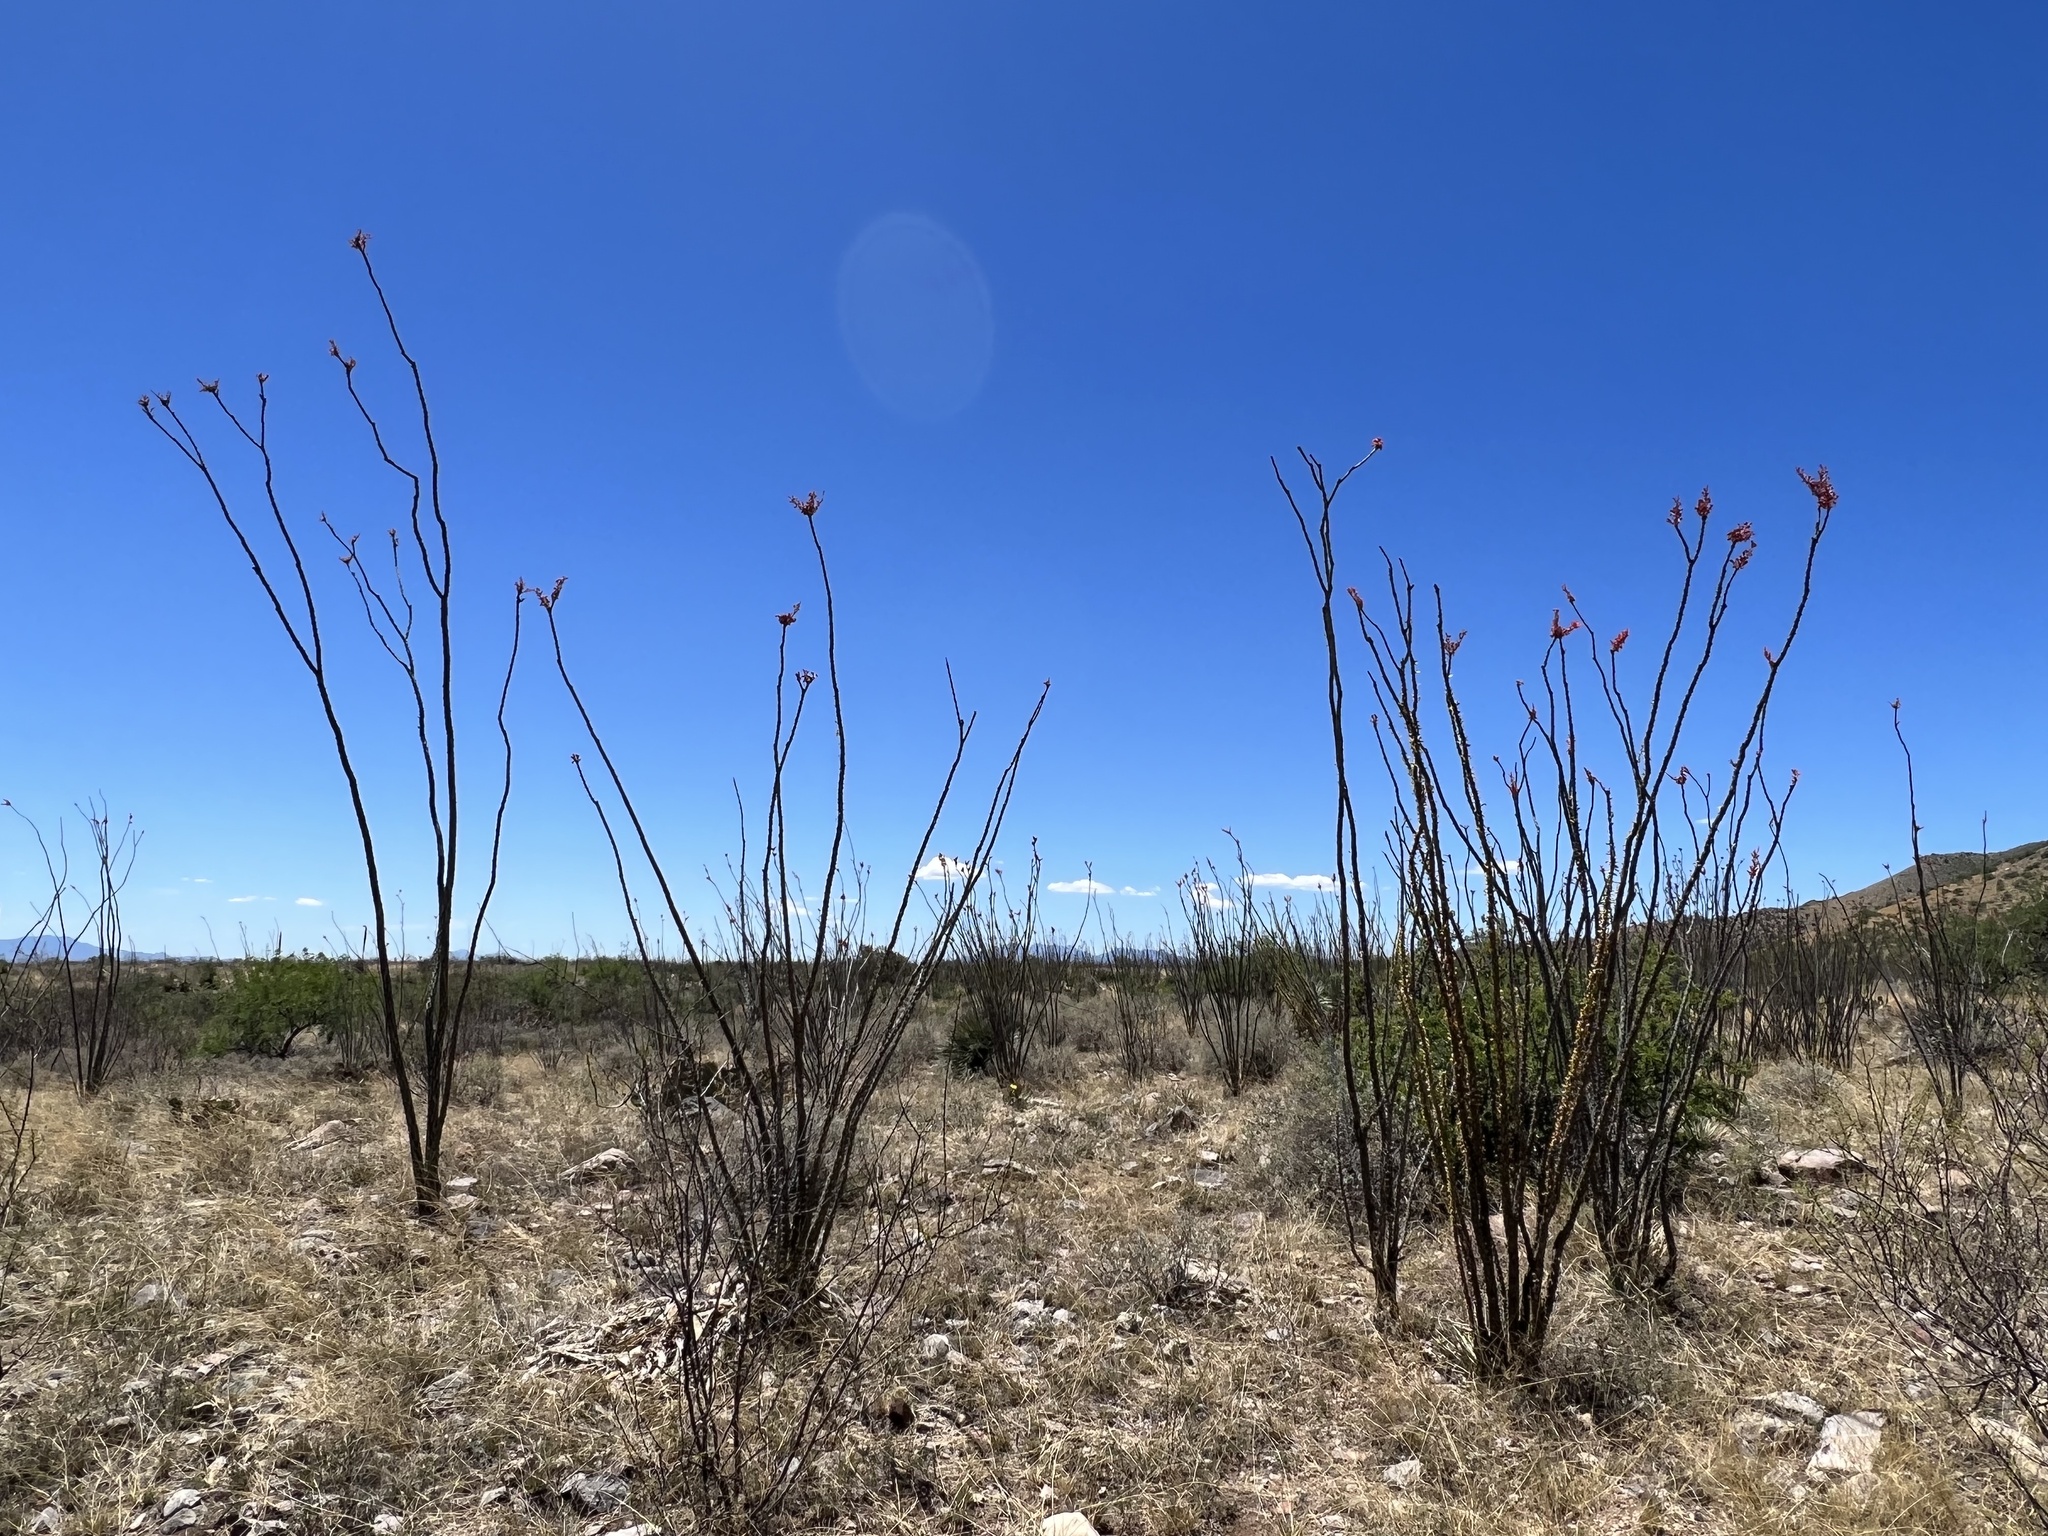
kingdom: Plantae
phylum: Tracheophyta
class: Magnoliopsida
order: Ericales
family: Fouquieriaceae
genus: Fouquieria
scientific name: Fouquieria splendens
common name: Vine-cactus
